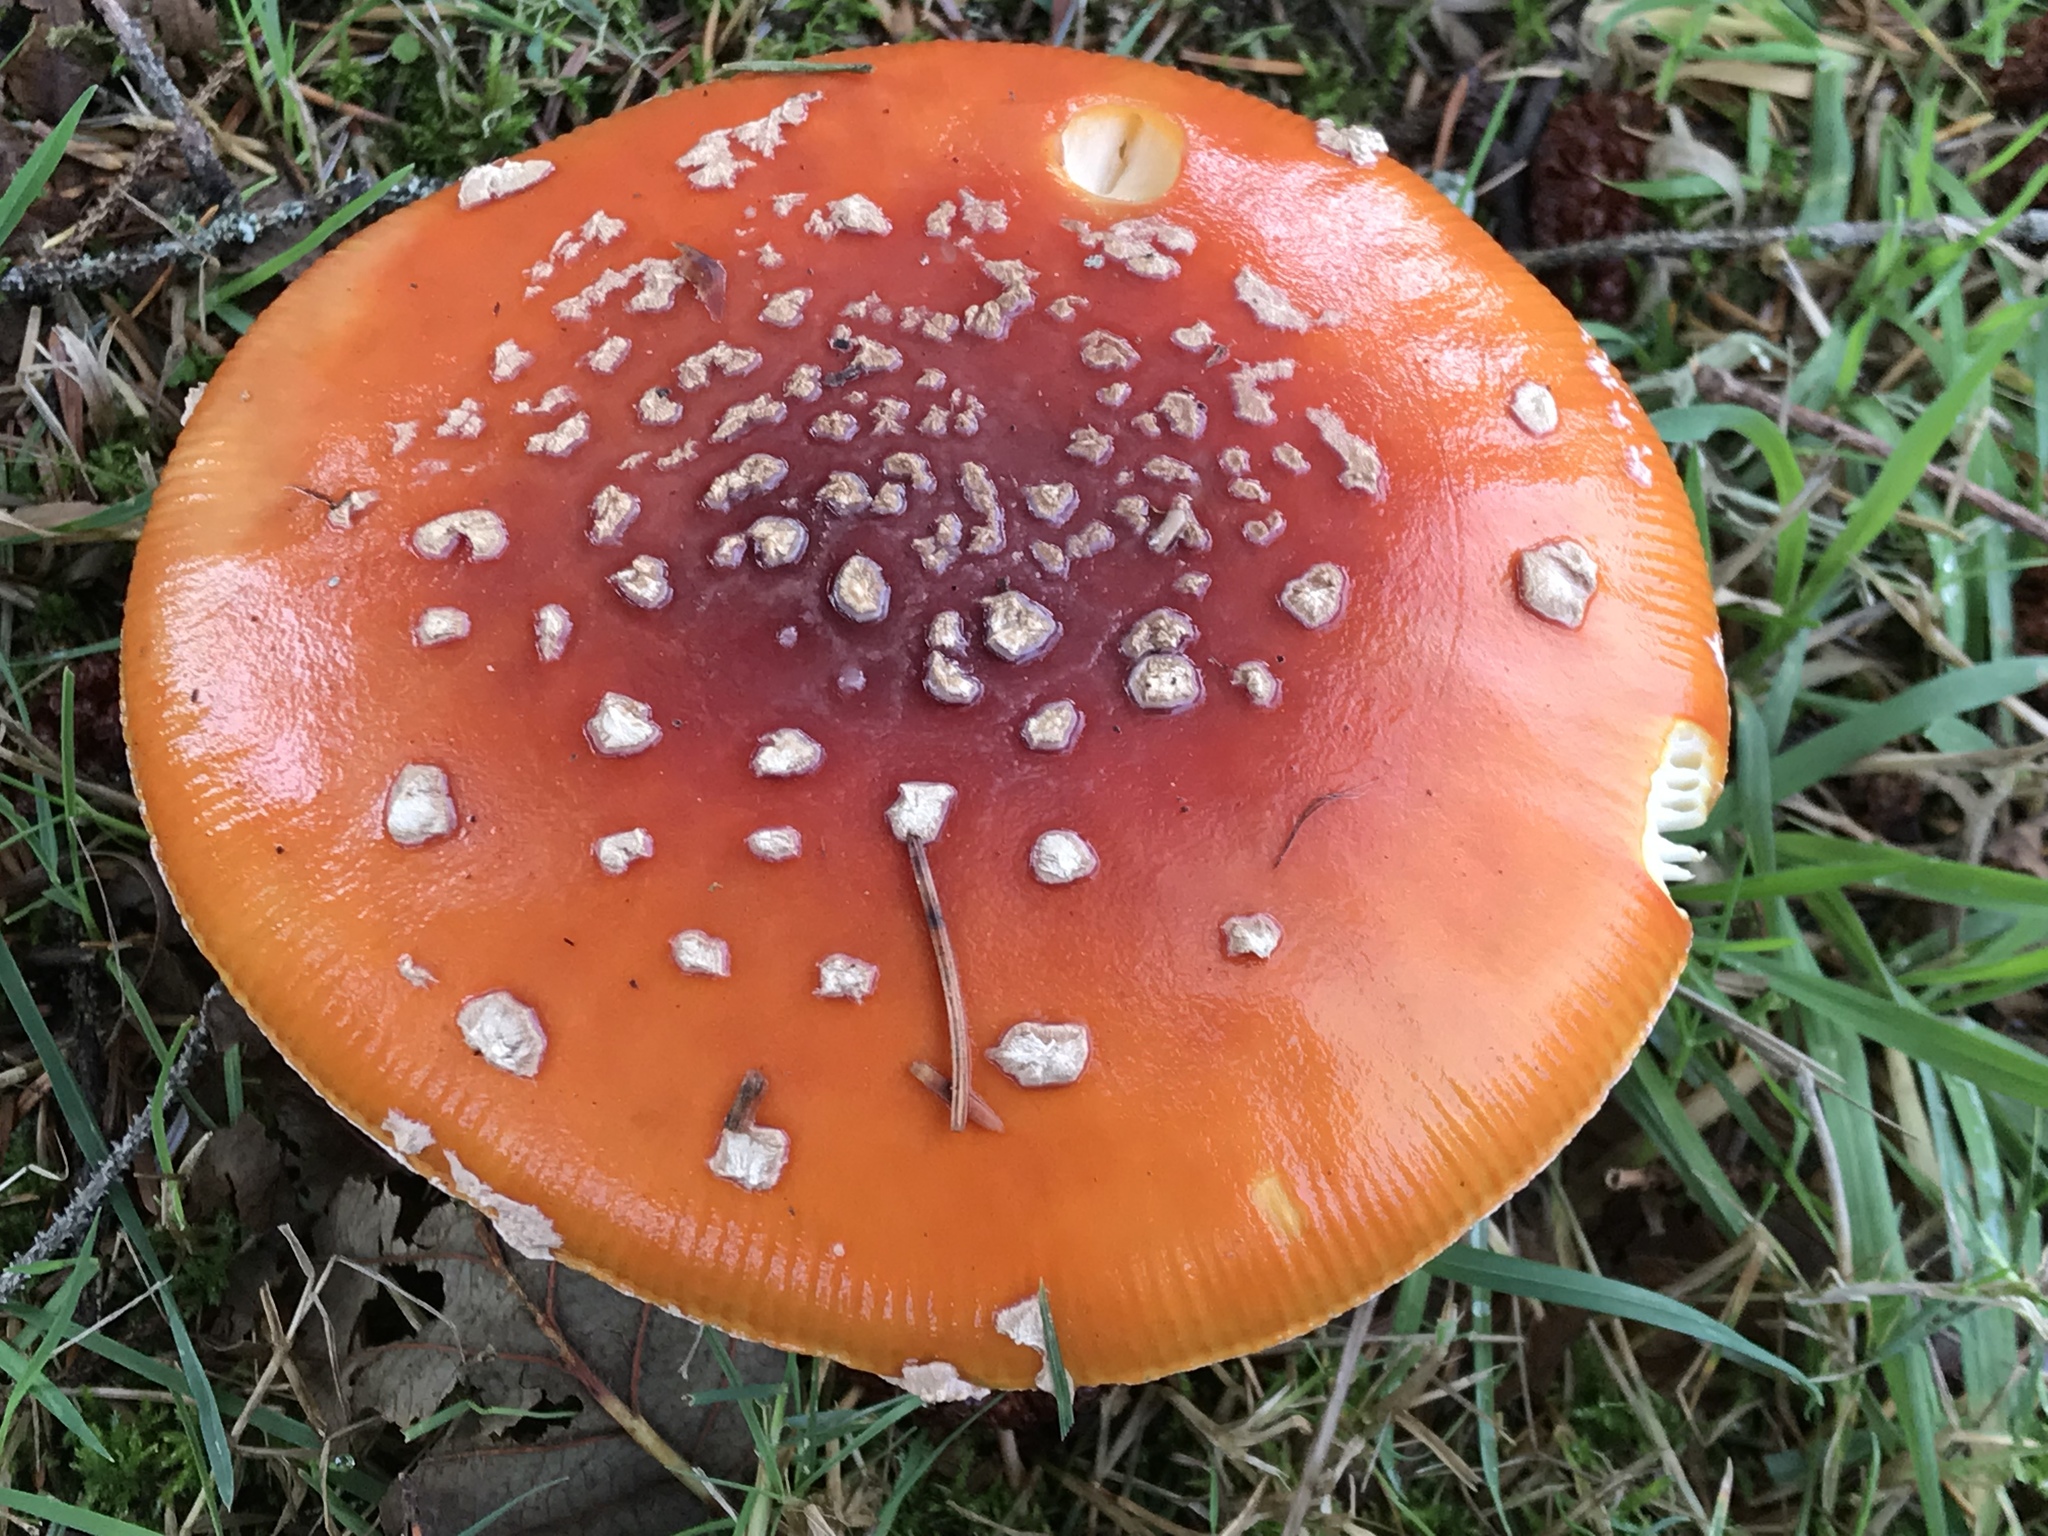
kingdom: Fungi
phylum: Basidiomycota
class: Agaricomycetes
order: Agaricales
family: Amanitaceae
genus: Amanita
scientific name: Amanita muscaria
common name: Fly agaric
